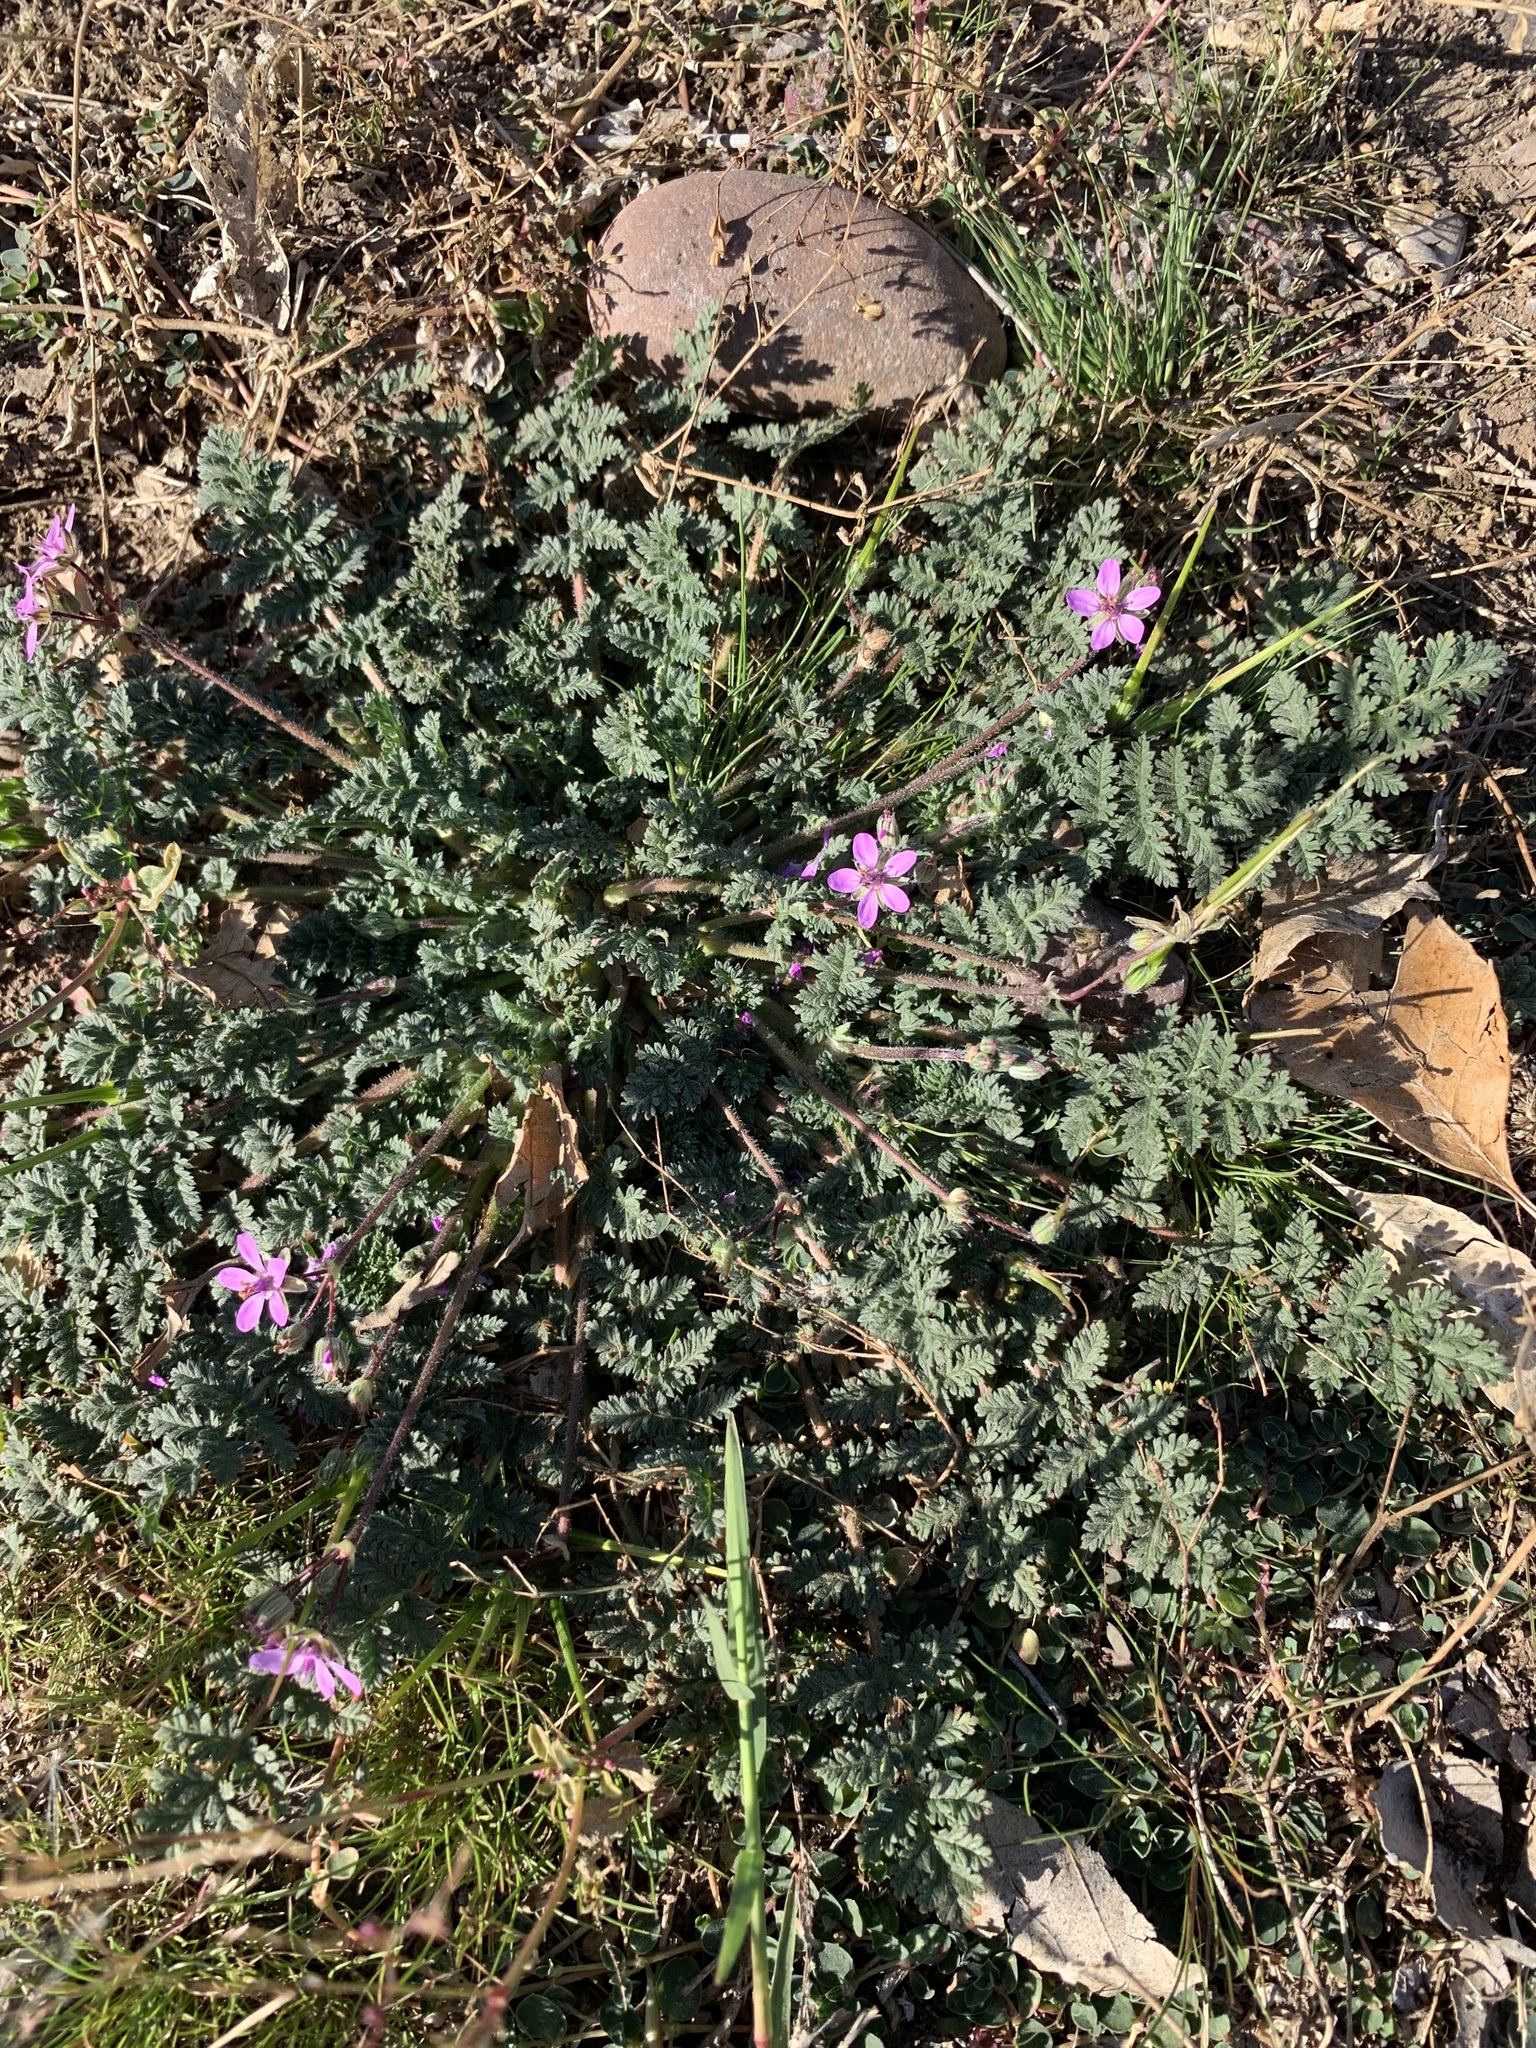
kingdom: Plantae
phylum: Tracheophyta
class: Magnoliopsida
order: Geraniales
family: Geraniaceae
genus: Erodium
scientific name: Erodium cicutarium
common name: Common stork's-bill
